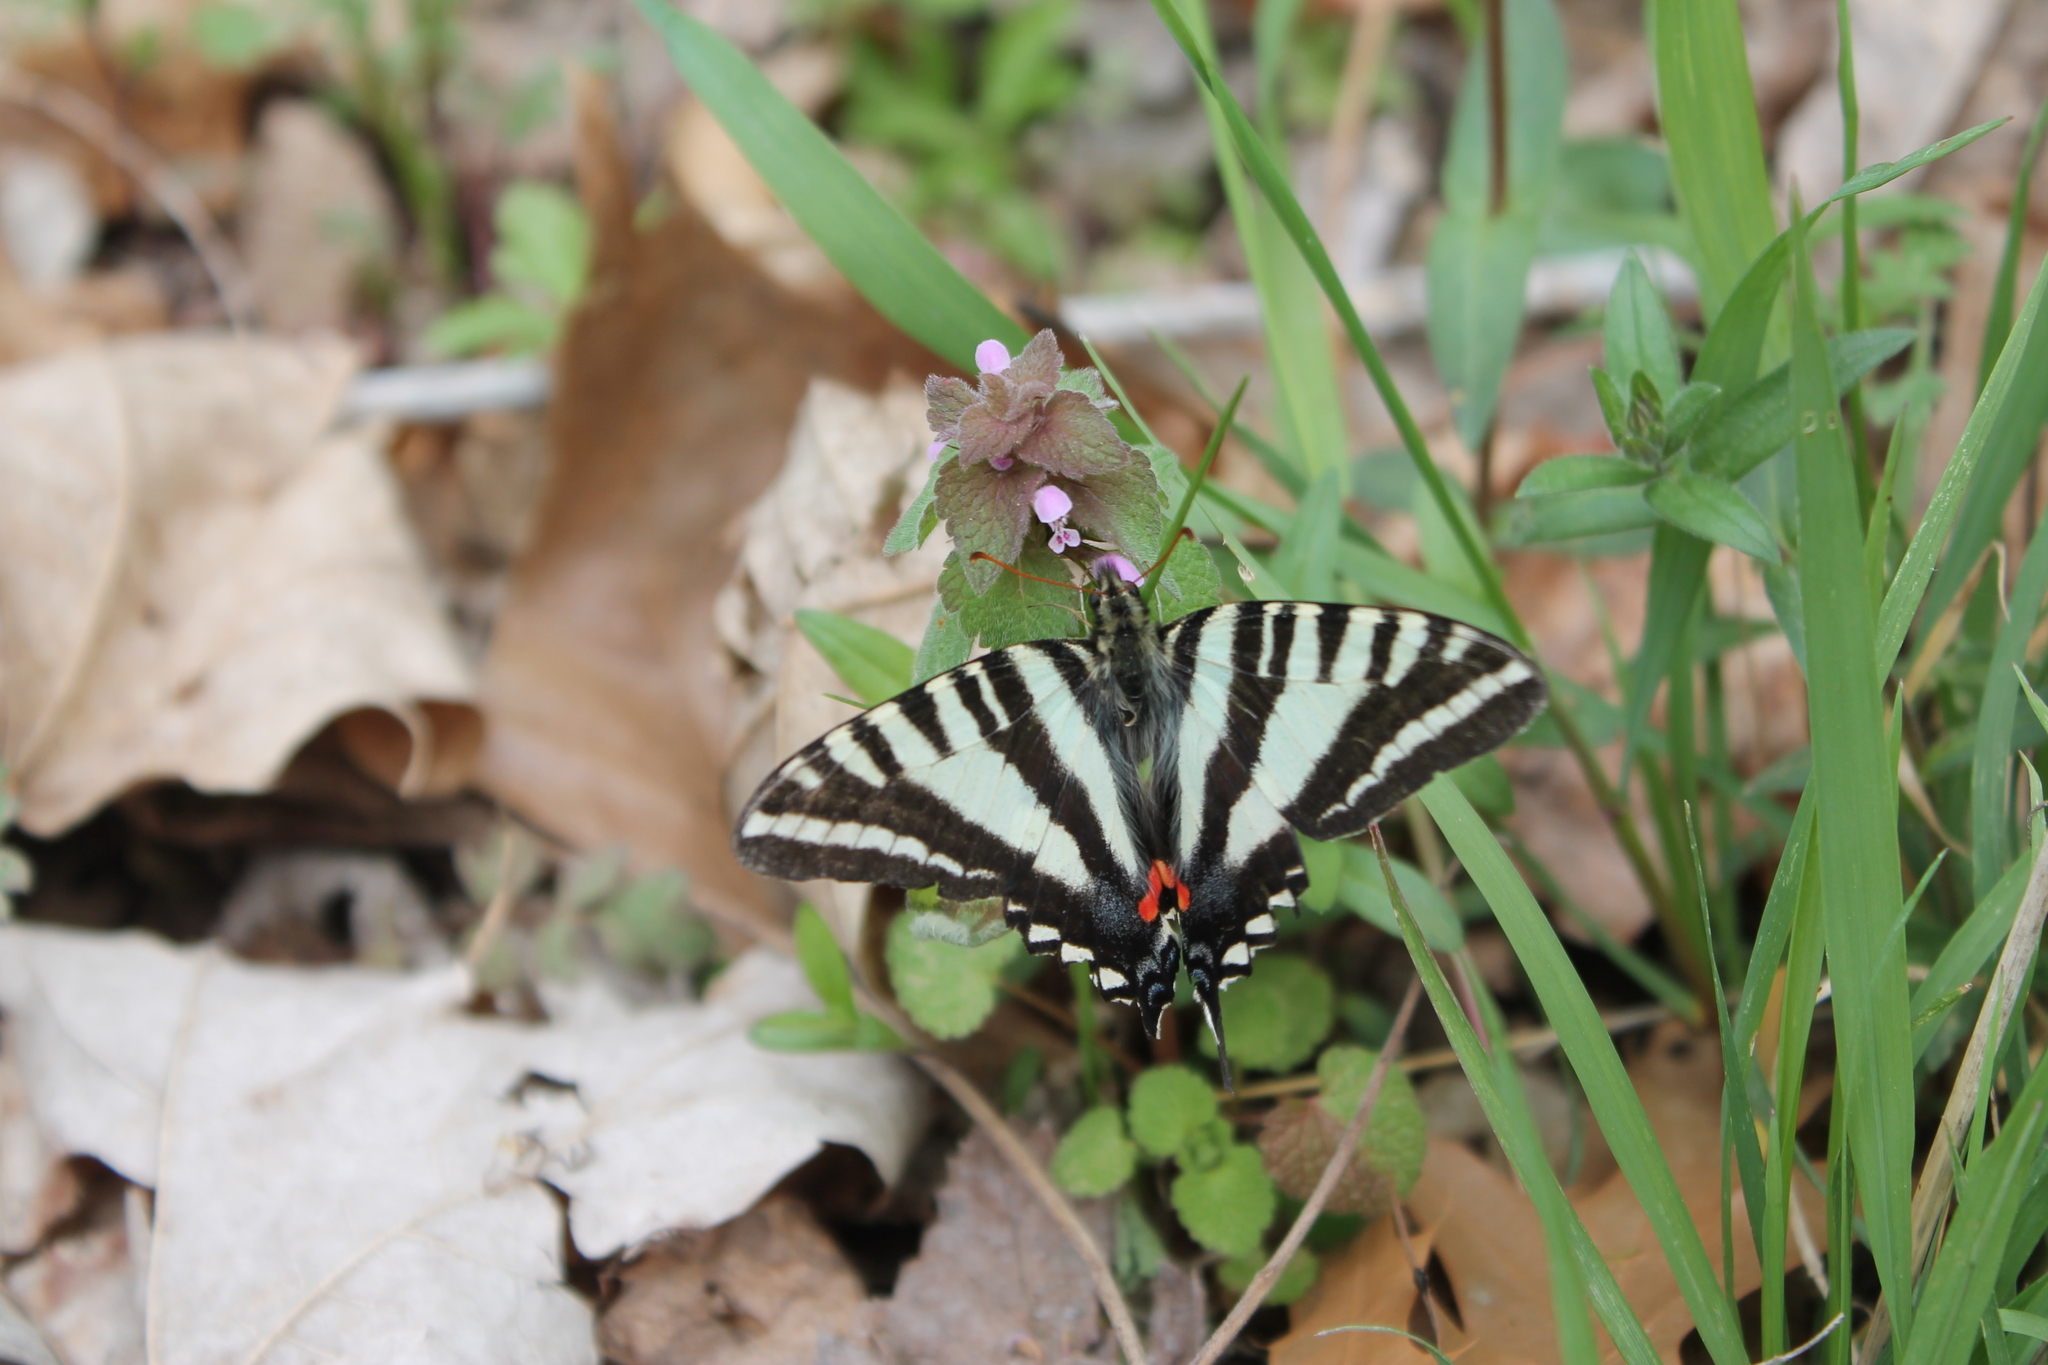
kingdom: Animalia
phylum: Arthropoda
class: Insecta
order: Lepidoptera
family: Papilionidae
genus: Protographium
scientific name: Protographium marcellus
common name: Zebra swallowtail
